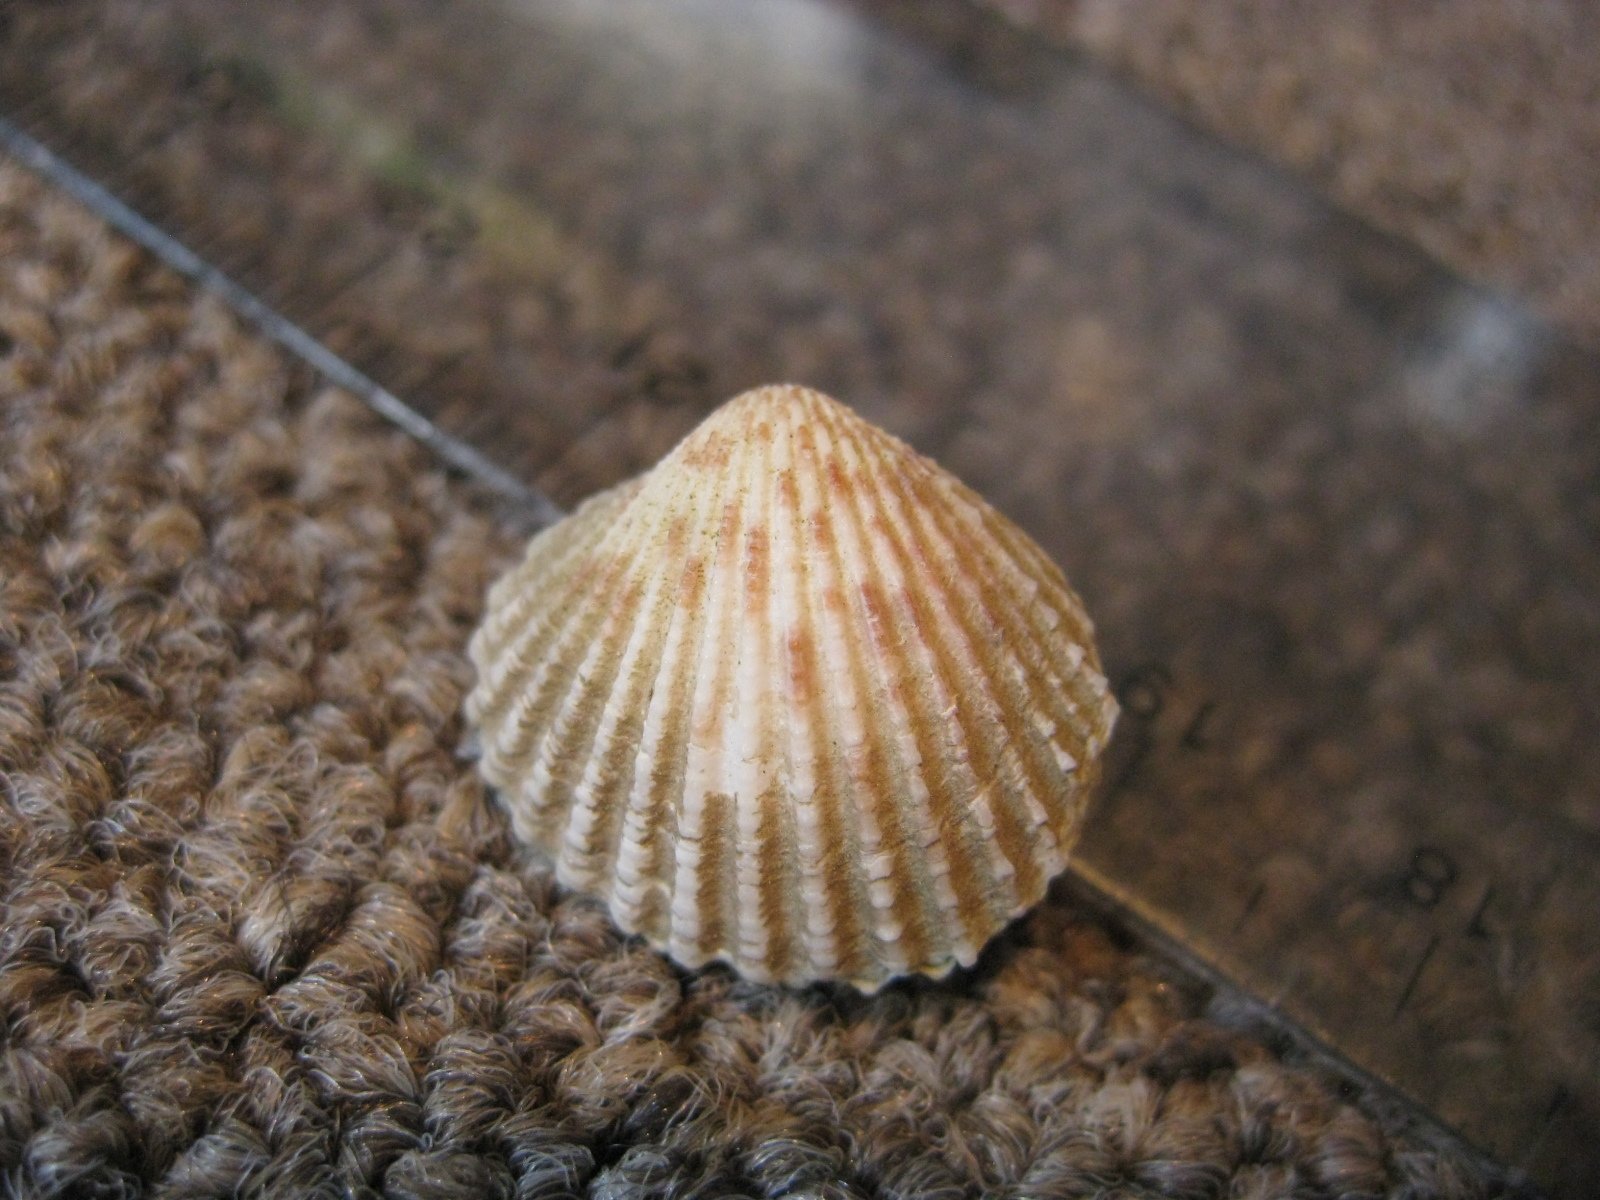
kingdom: Animalia
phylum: Mollusca
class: Bivalvia
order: Carditida
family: Carditidae
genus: Purpurocardia
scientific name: Purpurocardia purpurata
